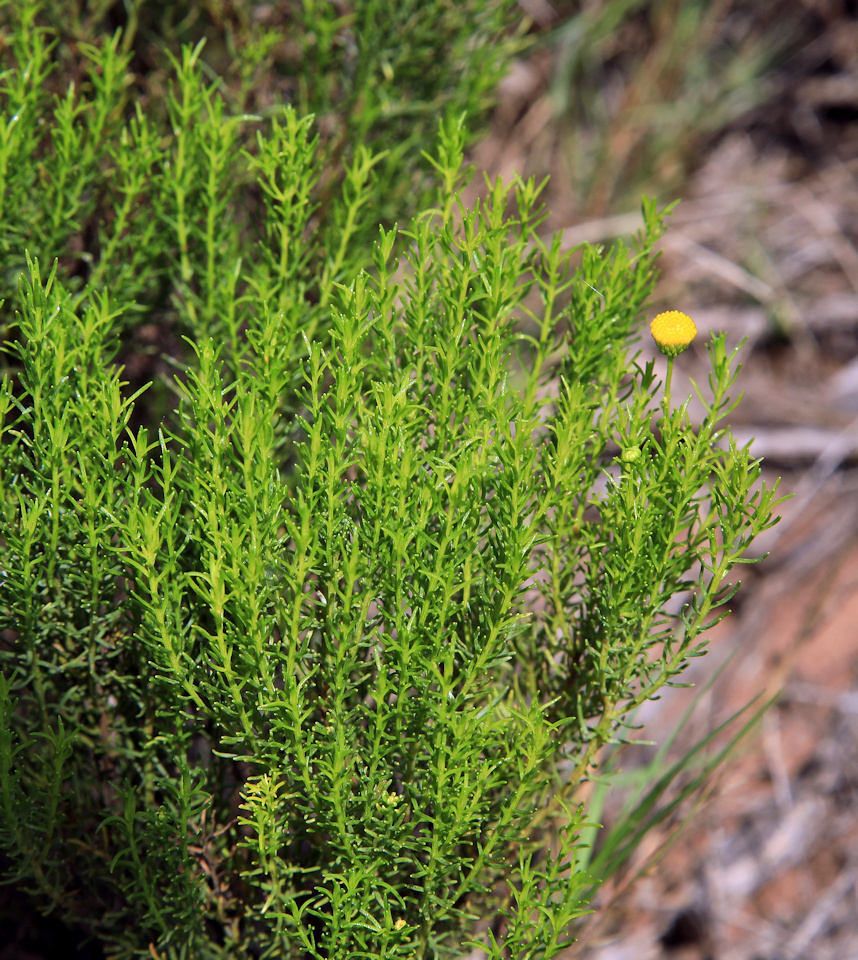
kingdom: Plantae
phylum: Tracheophyta
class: Magnoliopsida
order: Asterales
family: Asteraceae
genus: Chrysocoma
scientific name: Chrysocoma ciliata
